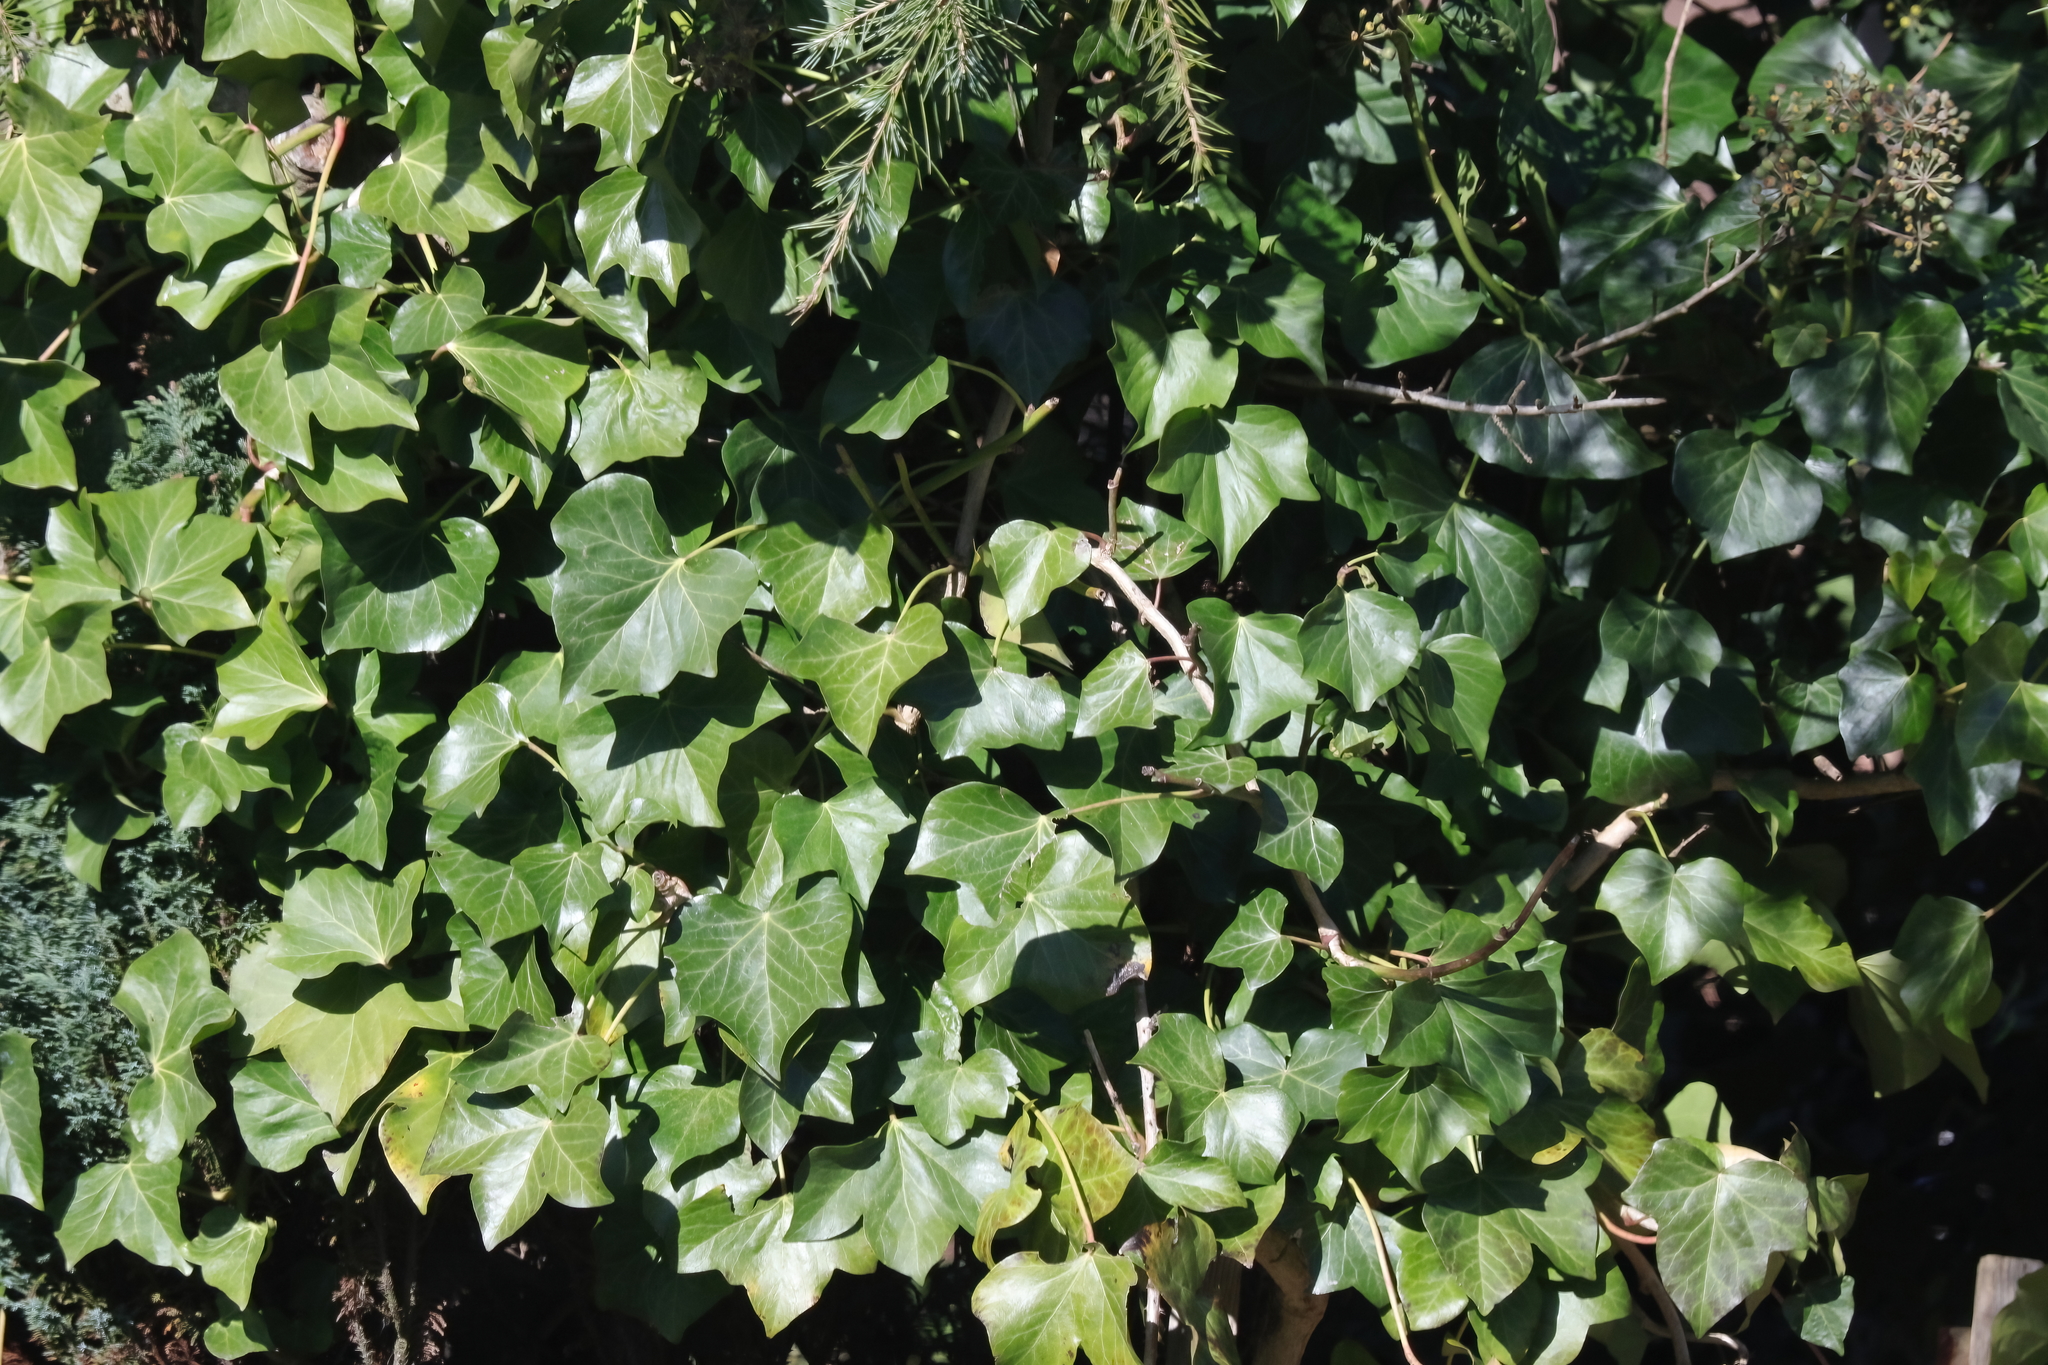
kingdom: Plantae
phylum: Tracheophyta
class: Magnoliopsida
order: Apiales
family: Araliaceae
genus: Hedera
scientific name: Hedera helix
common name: Ivy
